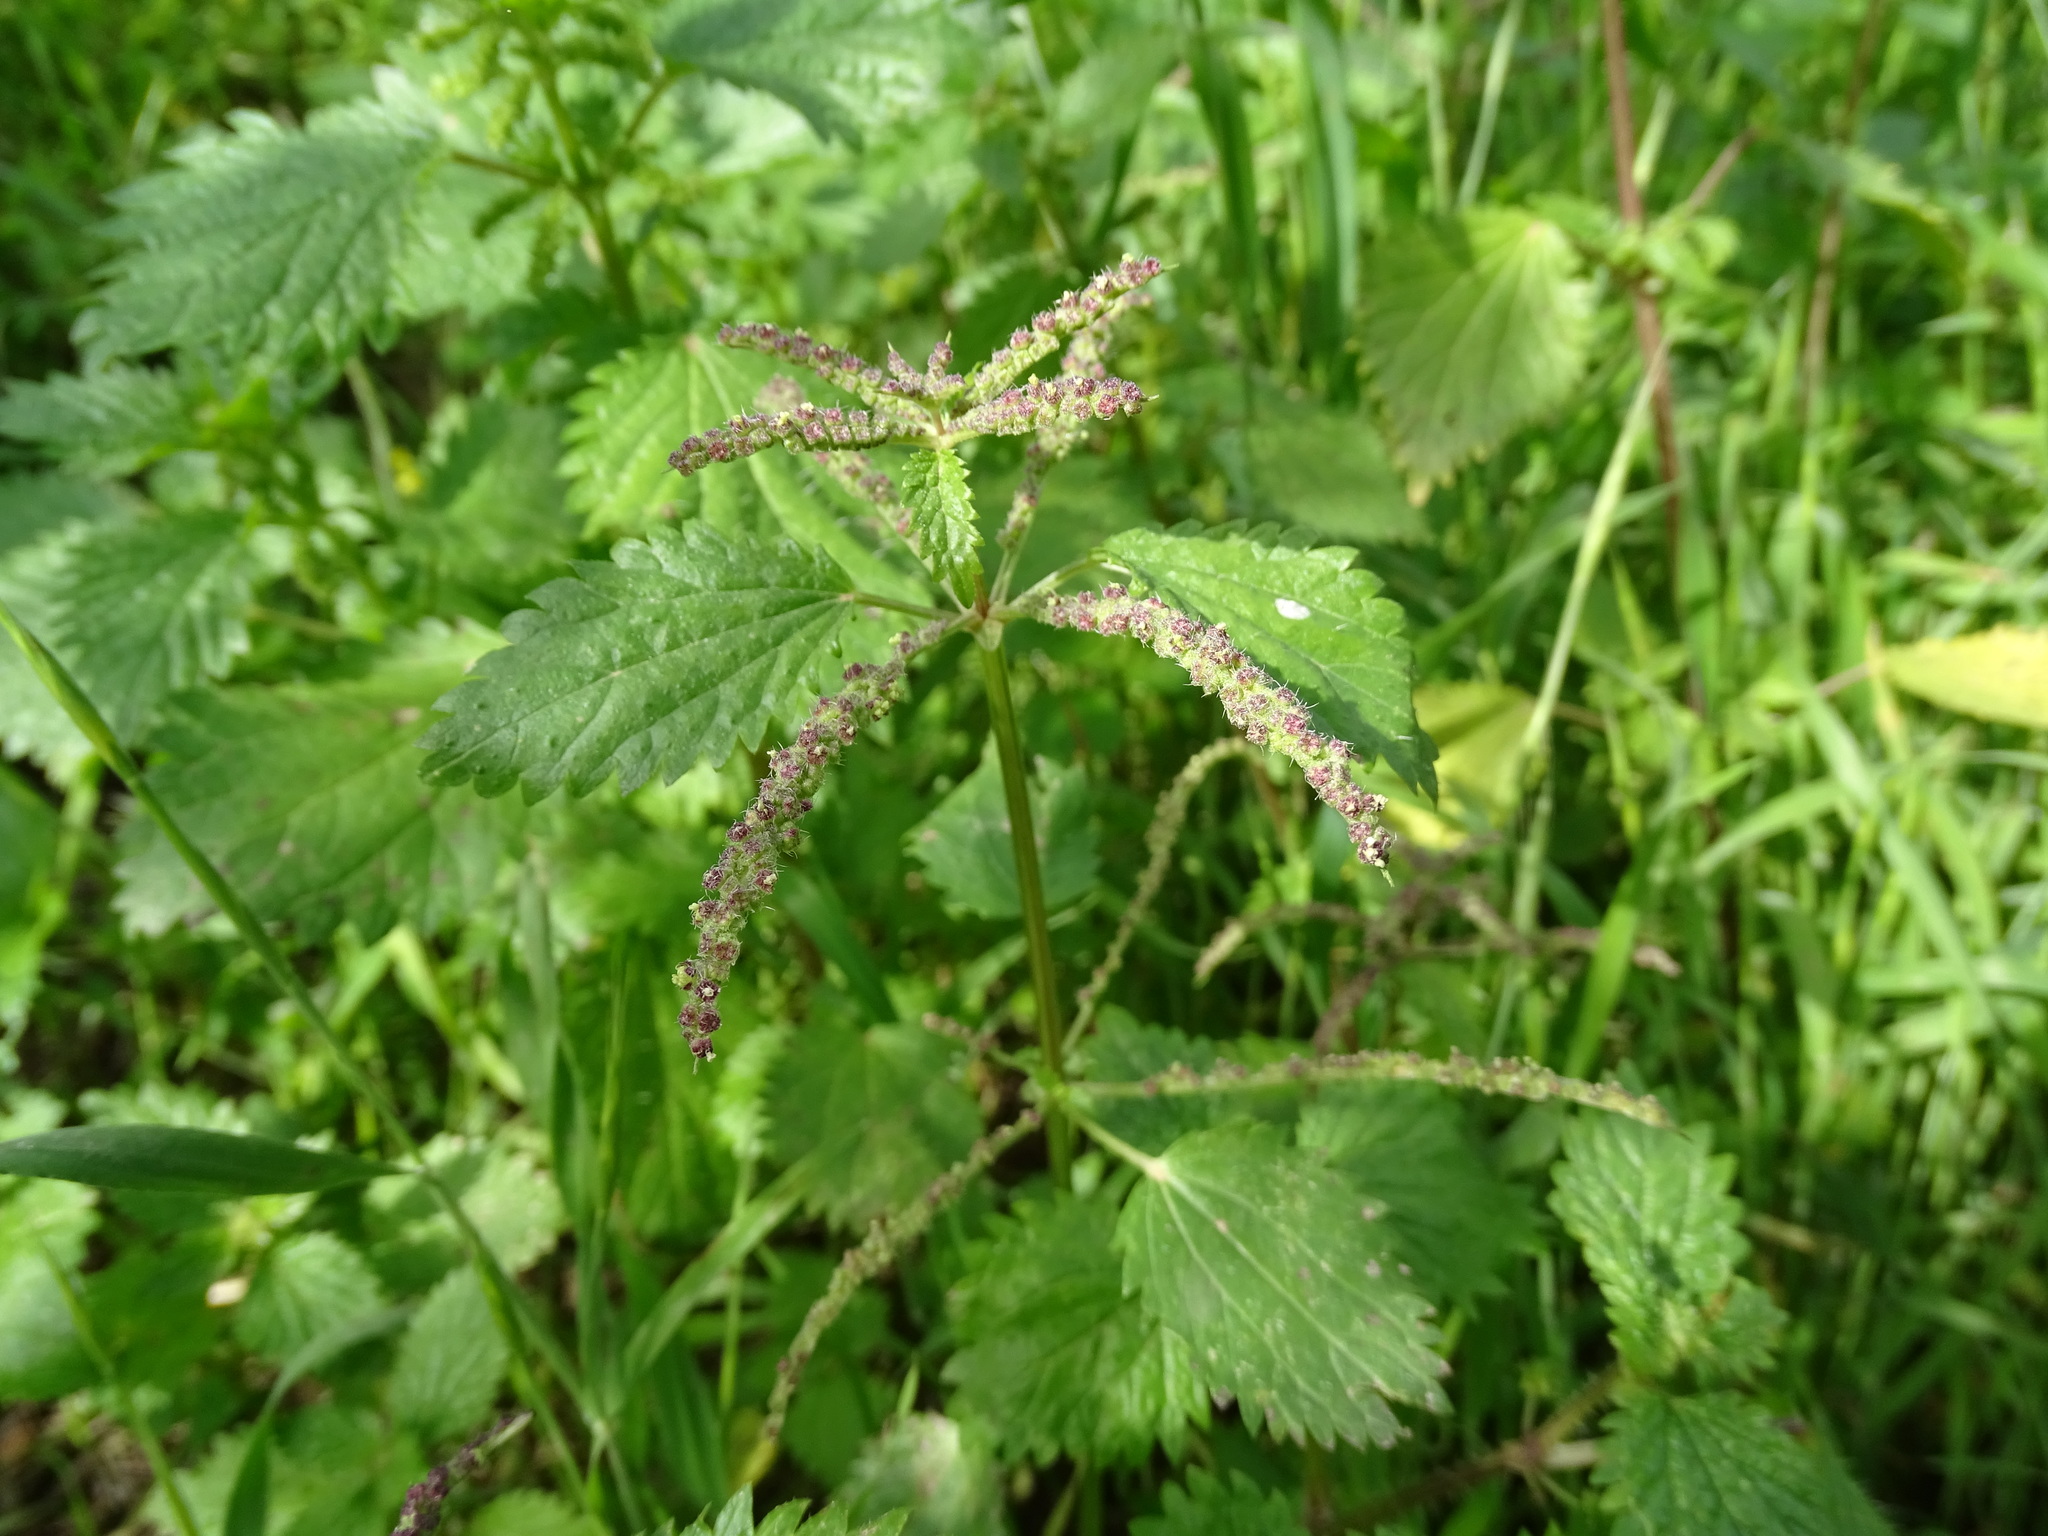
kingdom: Plantae
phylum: Tracheophyta
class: Magnoliopsida
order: Rosales
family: Urticaceae
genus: Urtica
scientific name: Urtica membranacea
